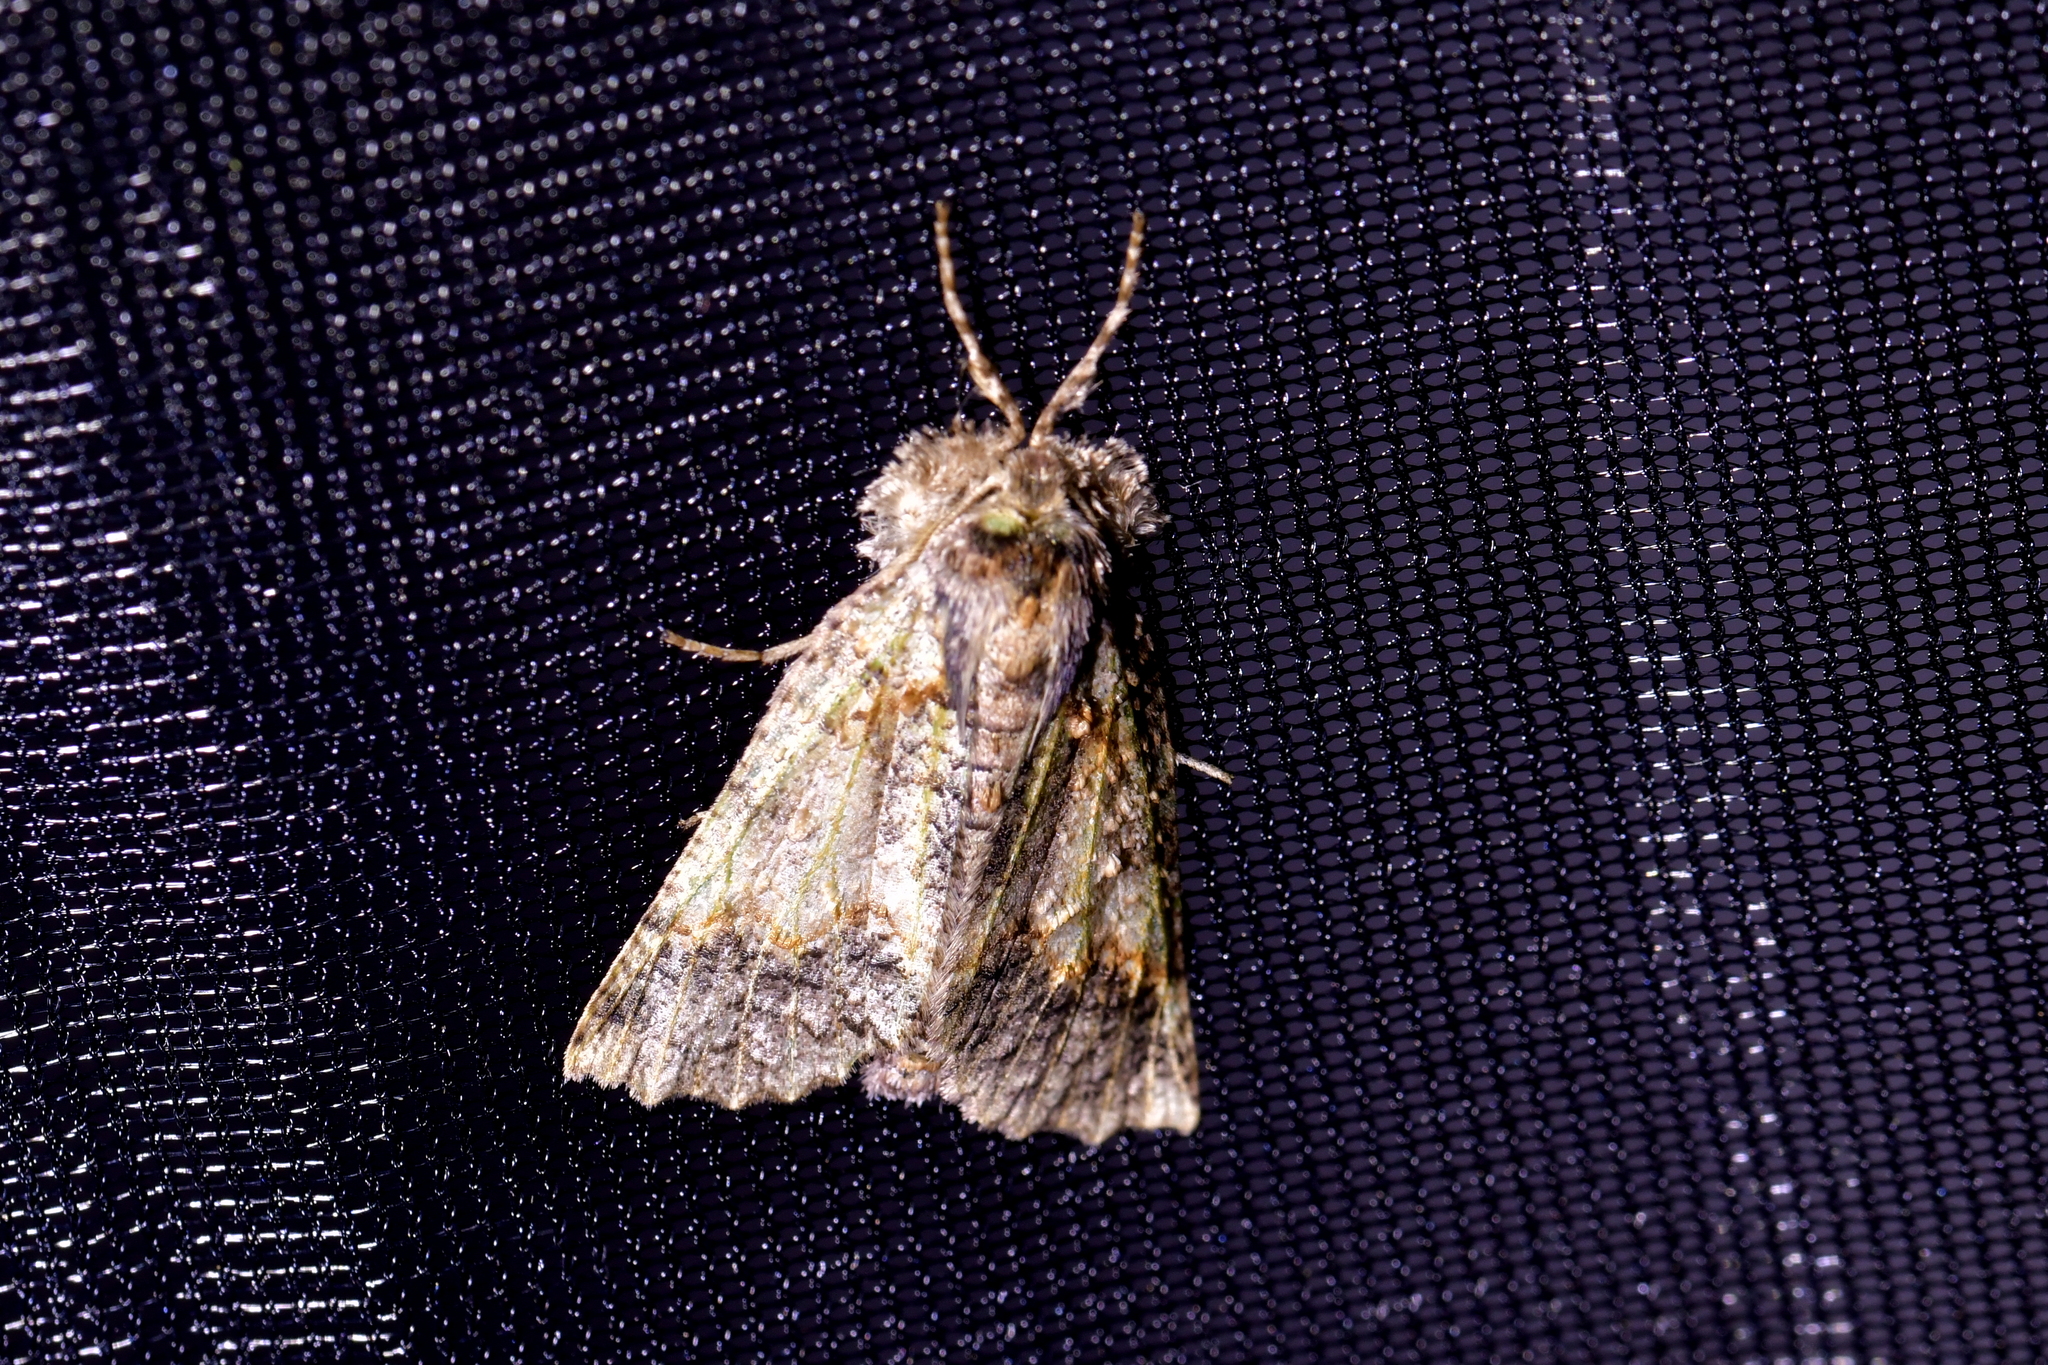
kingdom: Animalia
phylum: Arthropoda
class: Insecta
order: Lepidoptera
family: Geometridae
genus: Declana
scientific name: Declana floccosa
